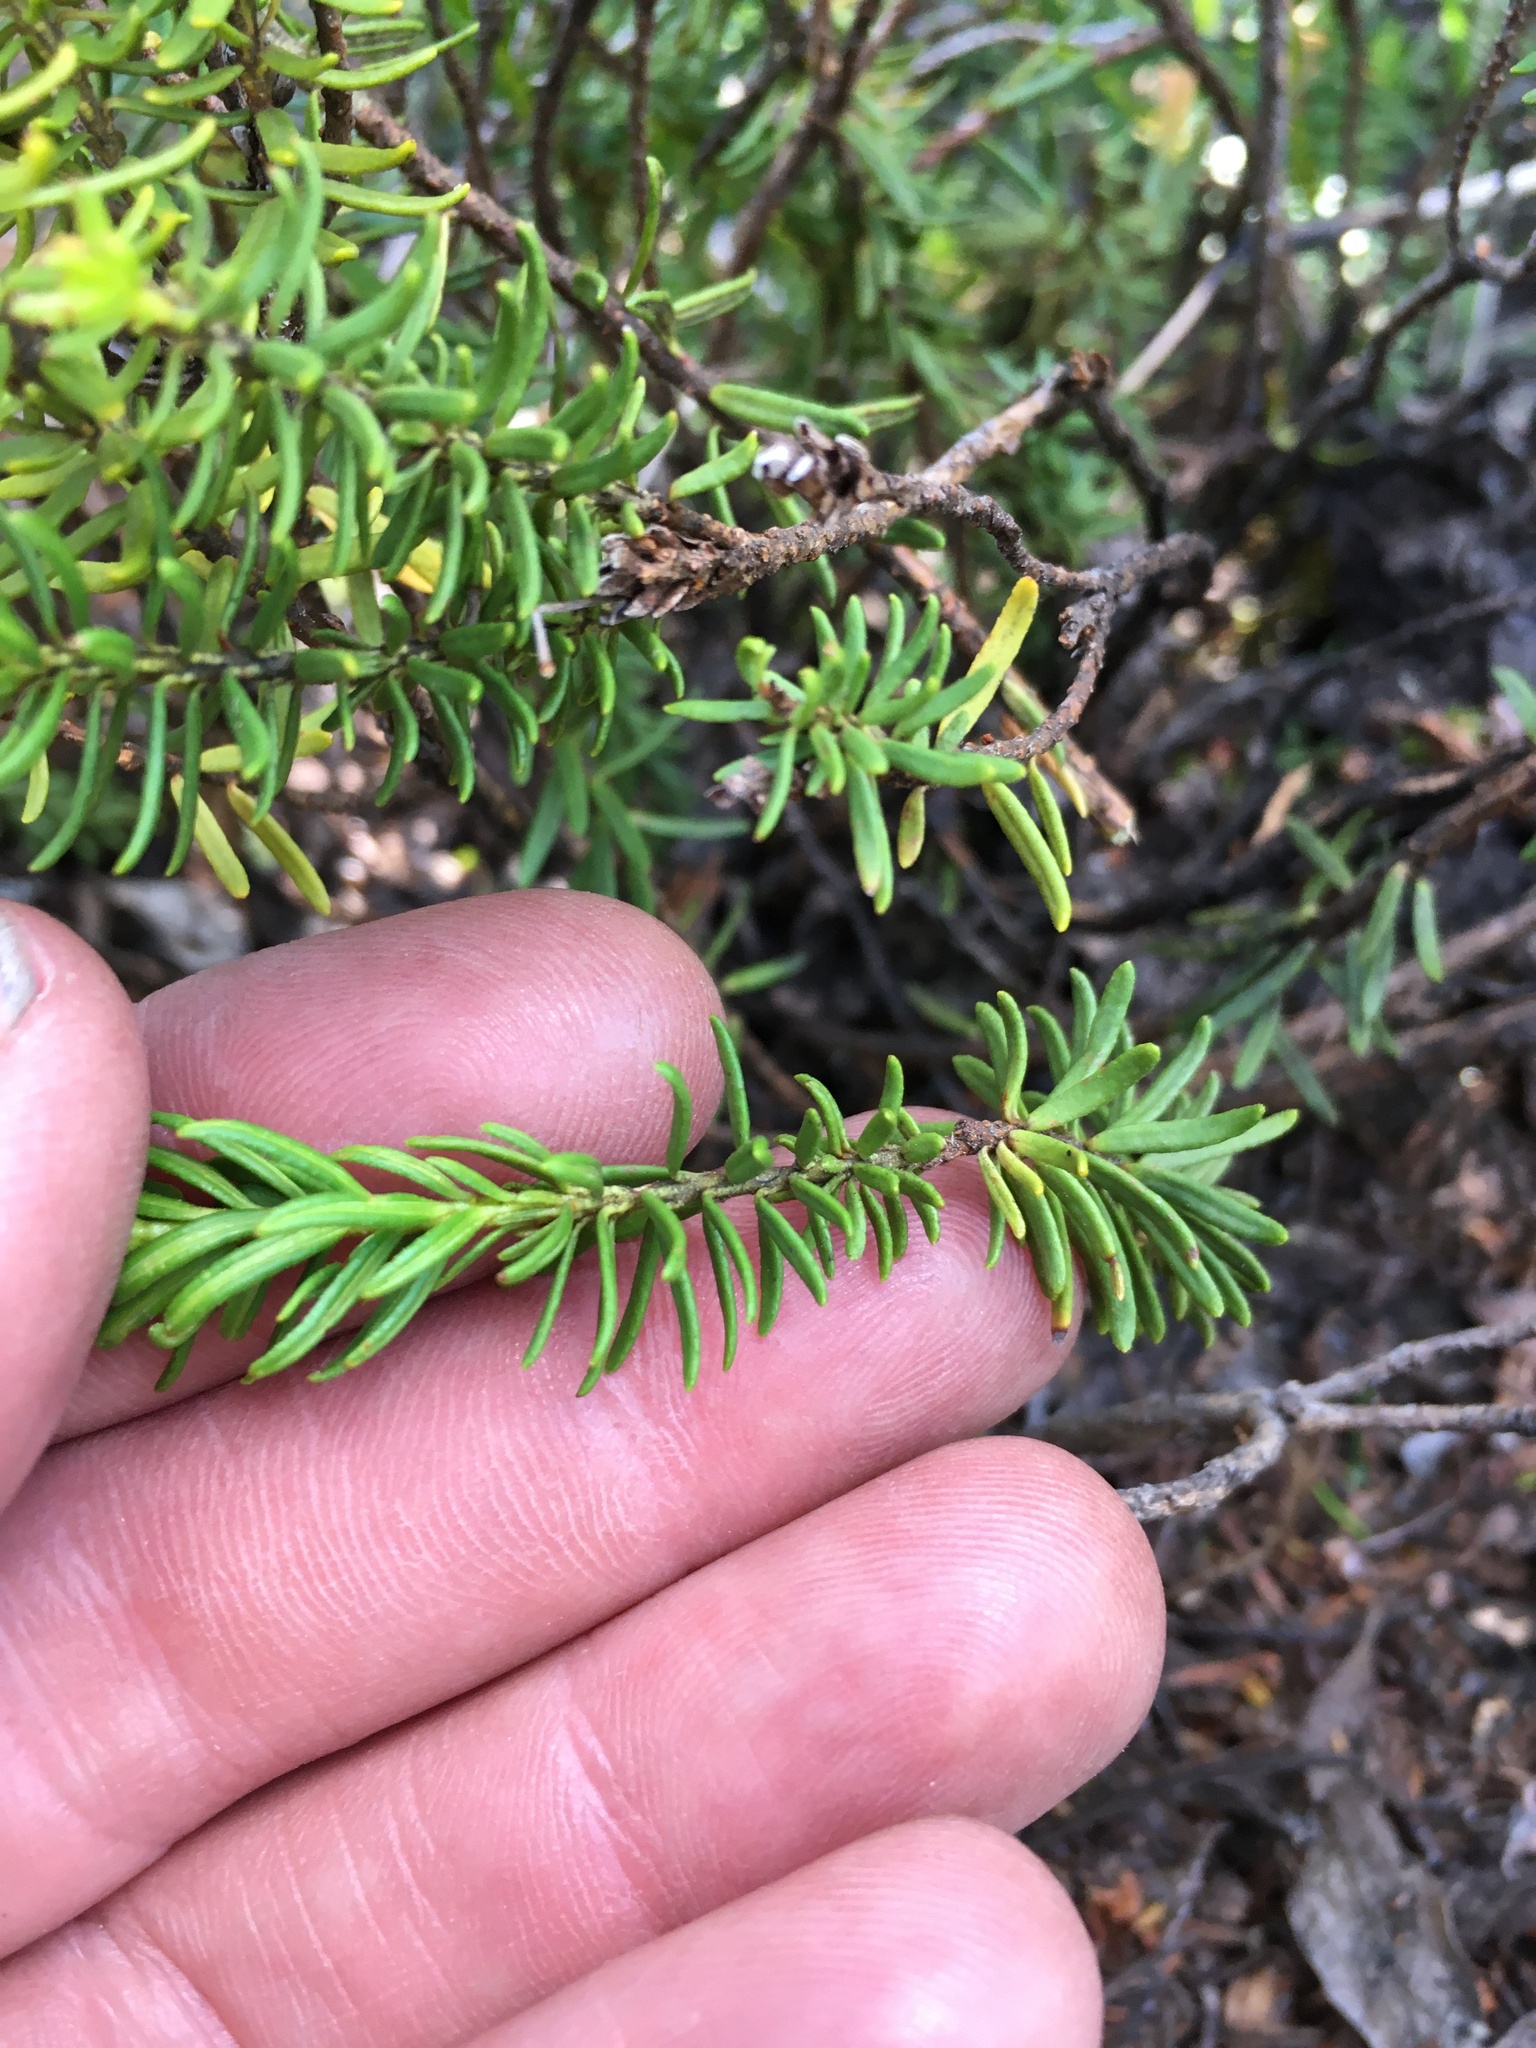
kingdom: Plantae
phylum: Tracheophyta
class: Magnoliopsida
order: Ericales
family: Ericaceae
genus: Phyllodoce
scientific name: Phyllodoce breweri
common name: Brewer's mountain-heather
